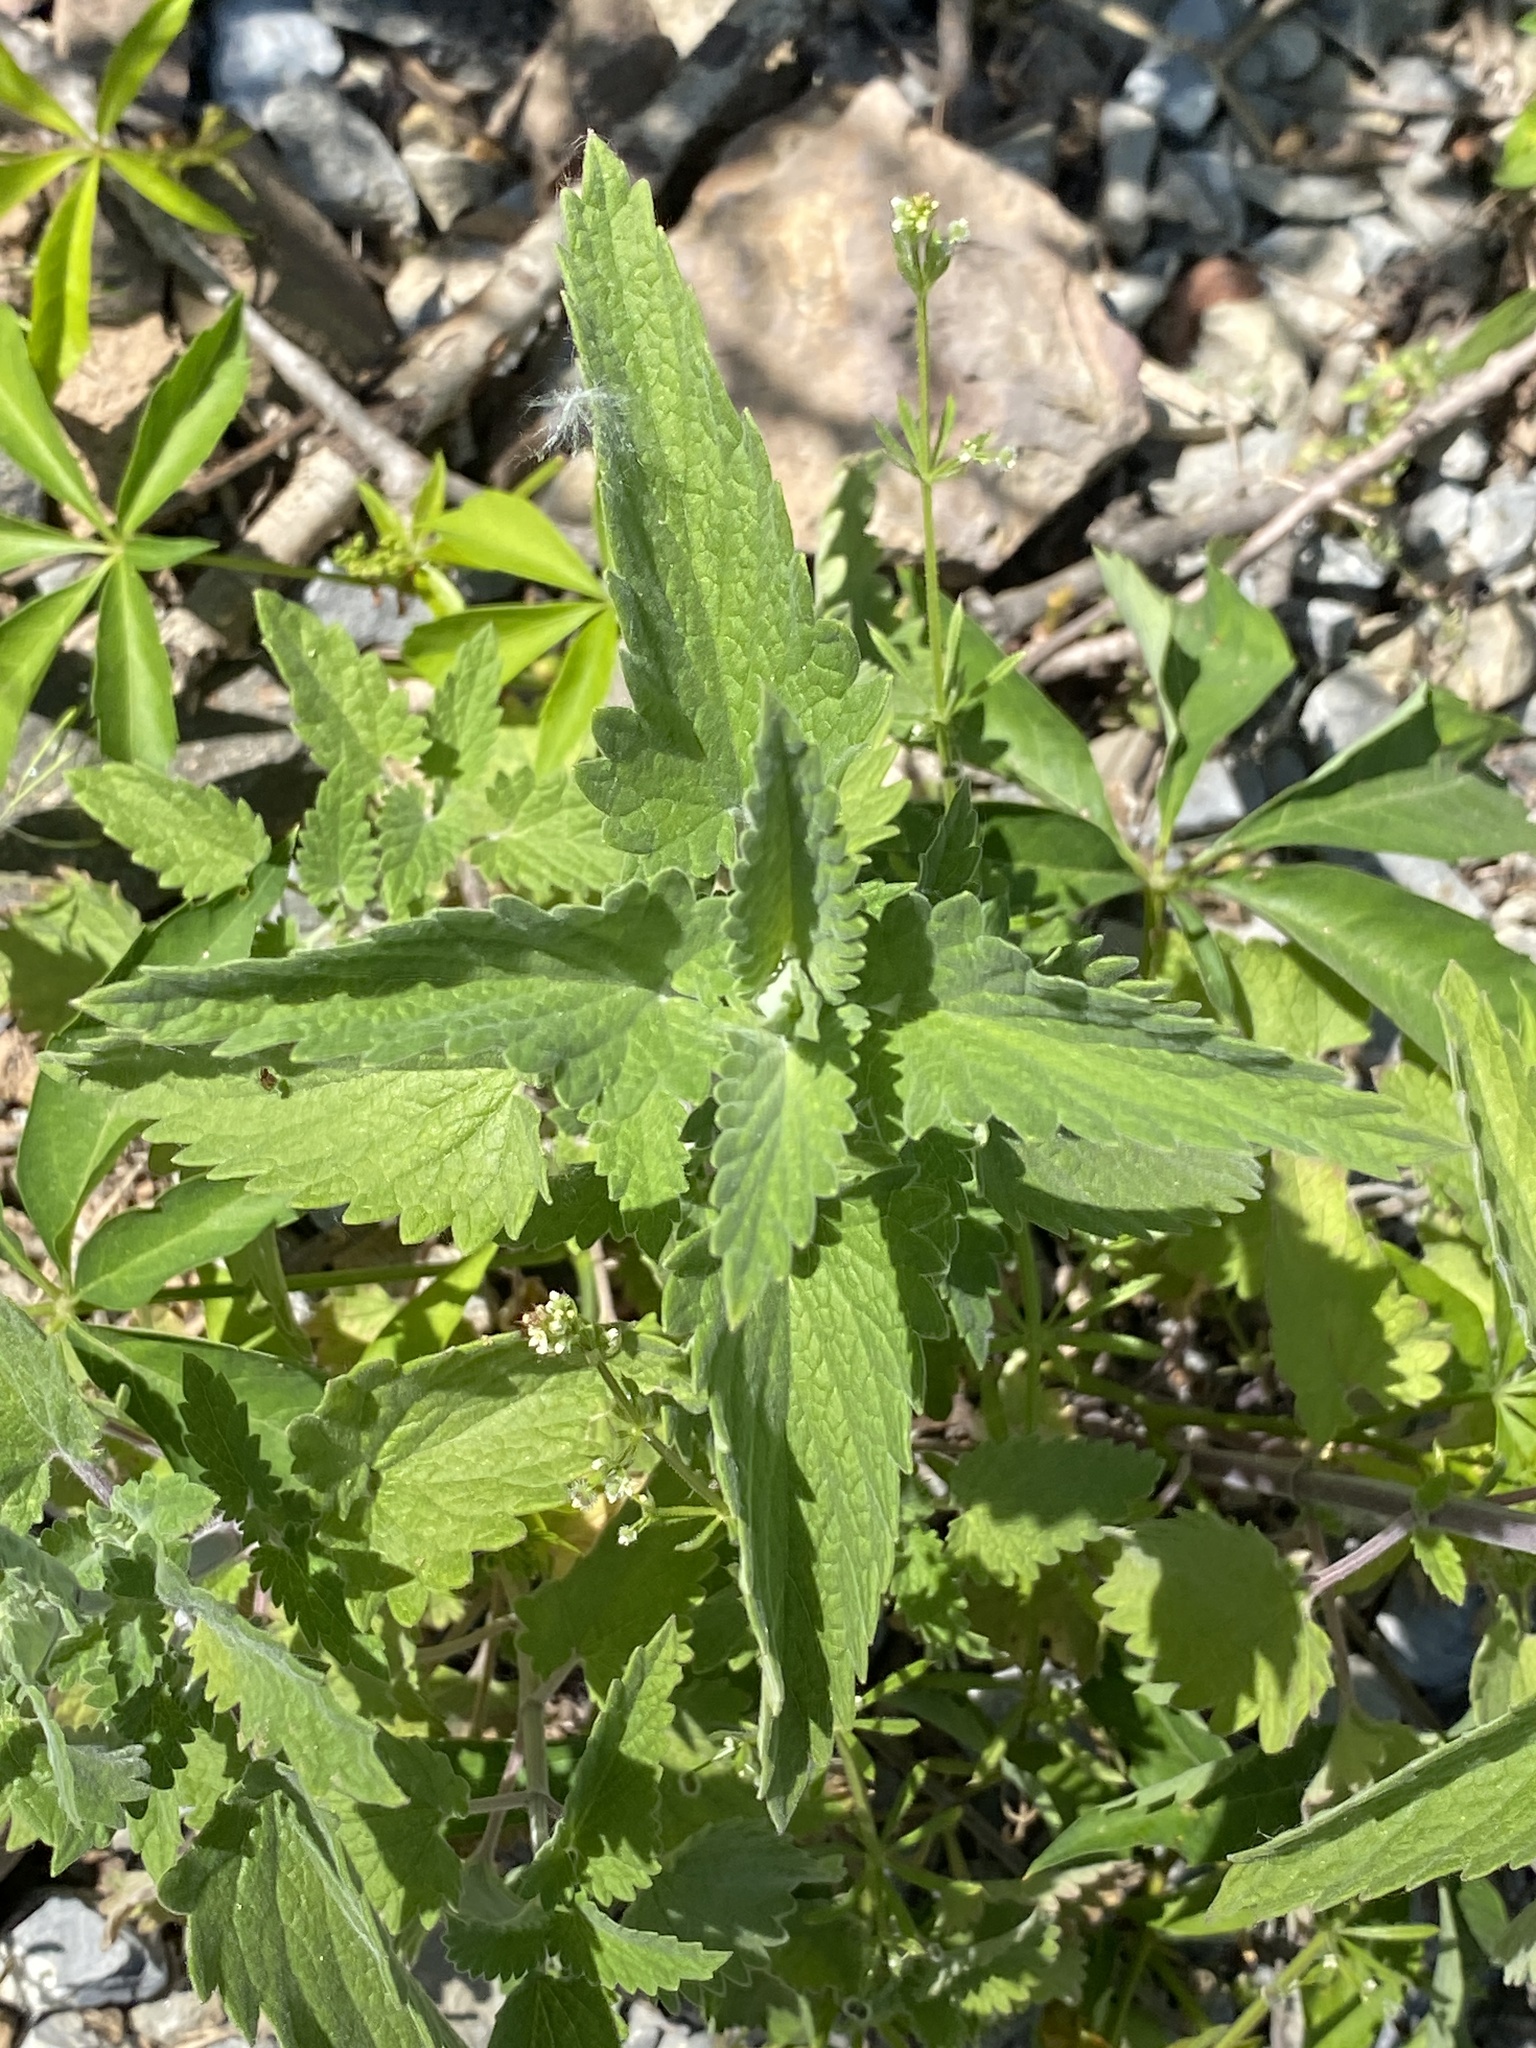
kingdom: Plantae
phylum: Tracheophyta
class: Magnoliopsida
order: Lamiales
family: Lamiaceae
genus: Nepeta
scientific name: Nepeta cataria
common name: Catnip
